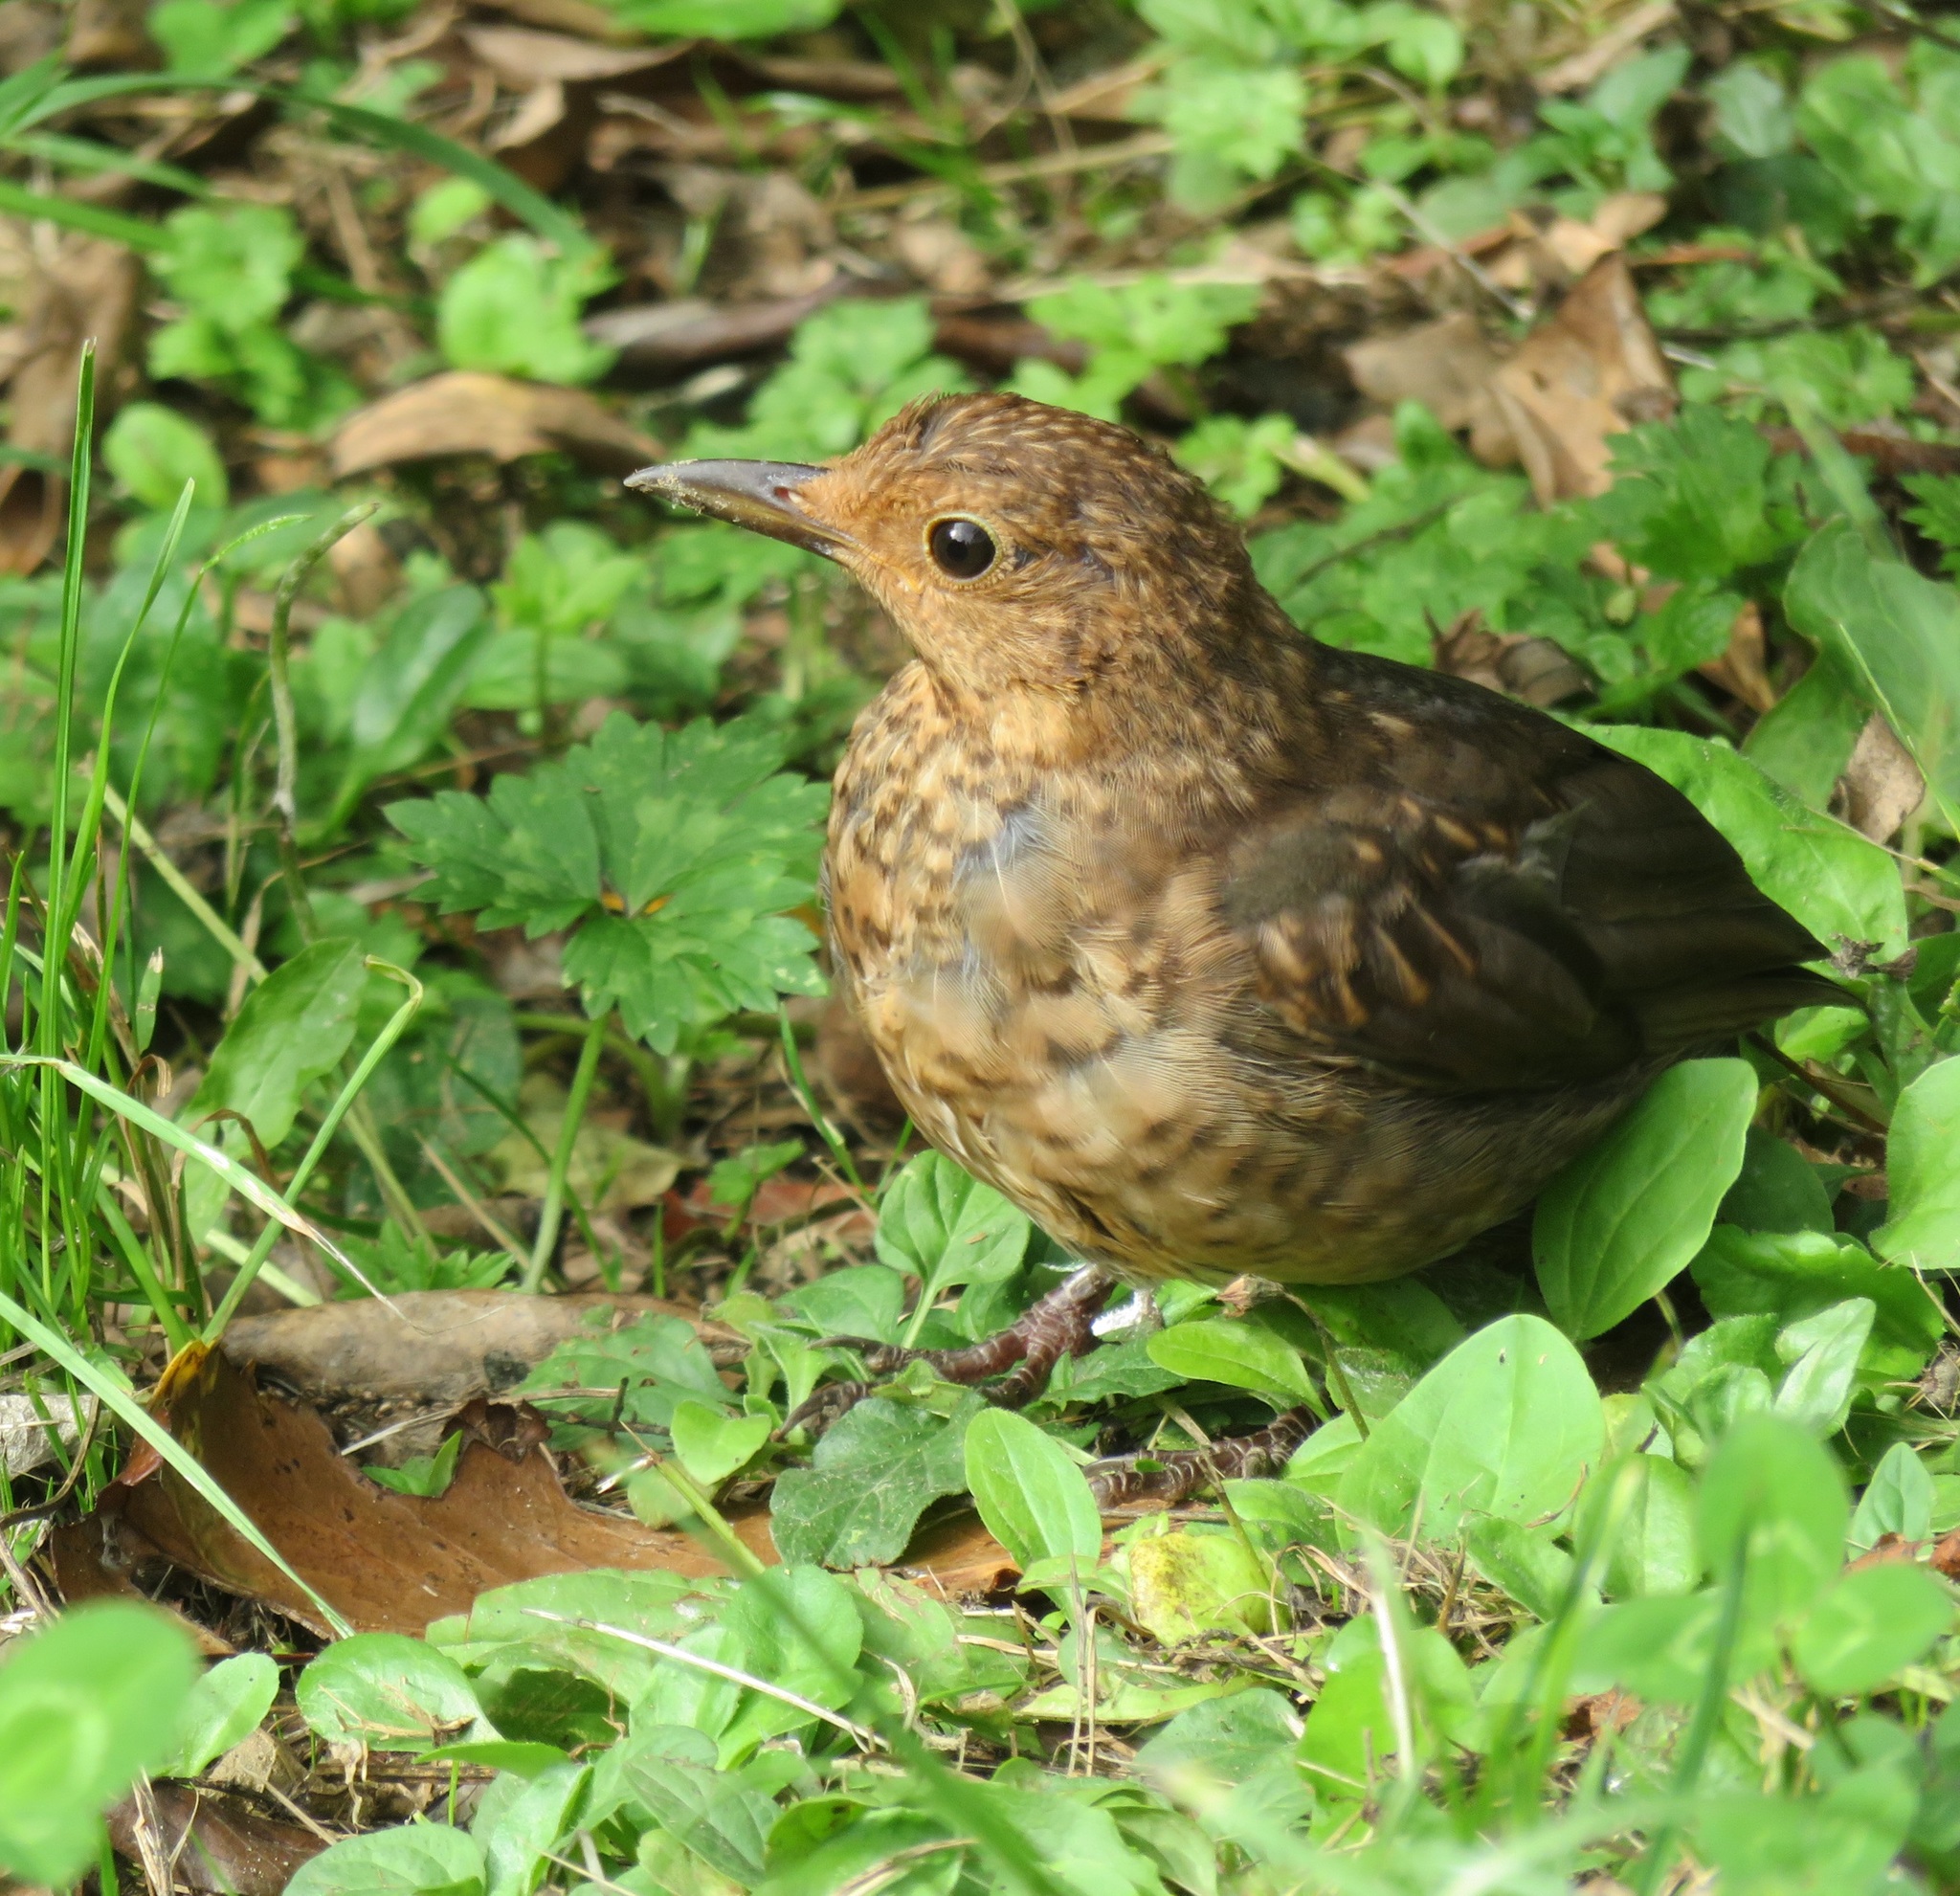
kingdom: Animalia
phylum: Chordata
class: Aves
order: Passeriformes
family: Turdidae
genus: Turdus
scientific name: Turdus merula
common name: Common blackbird
